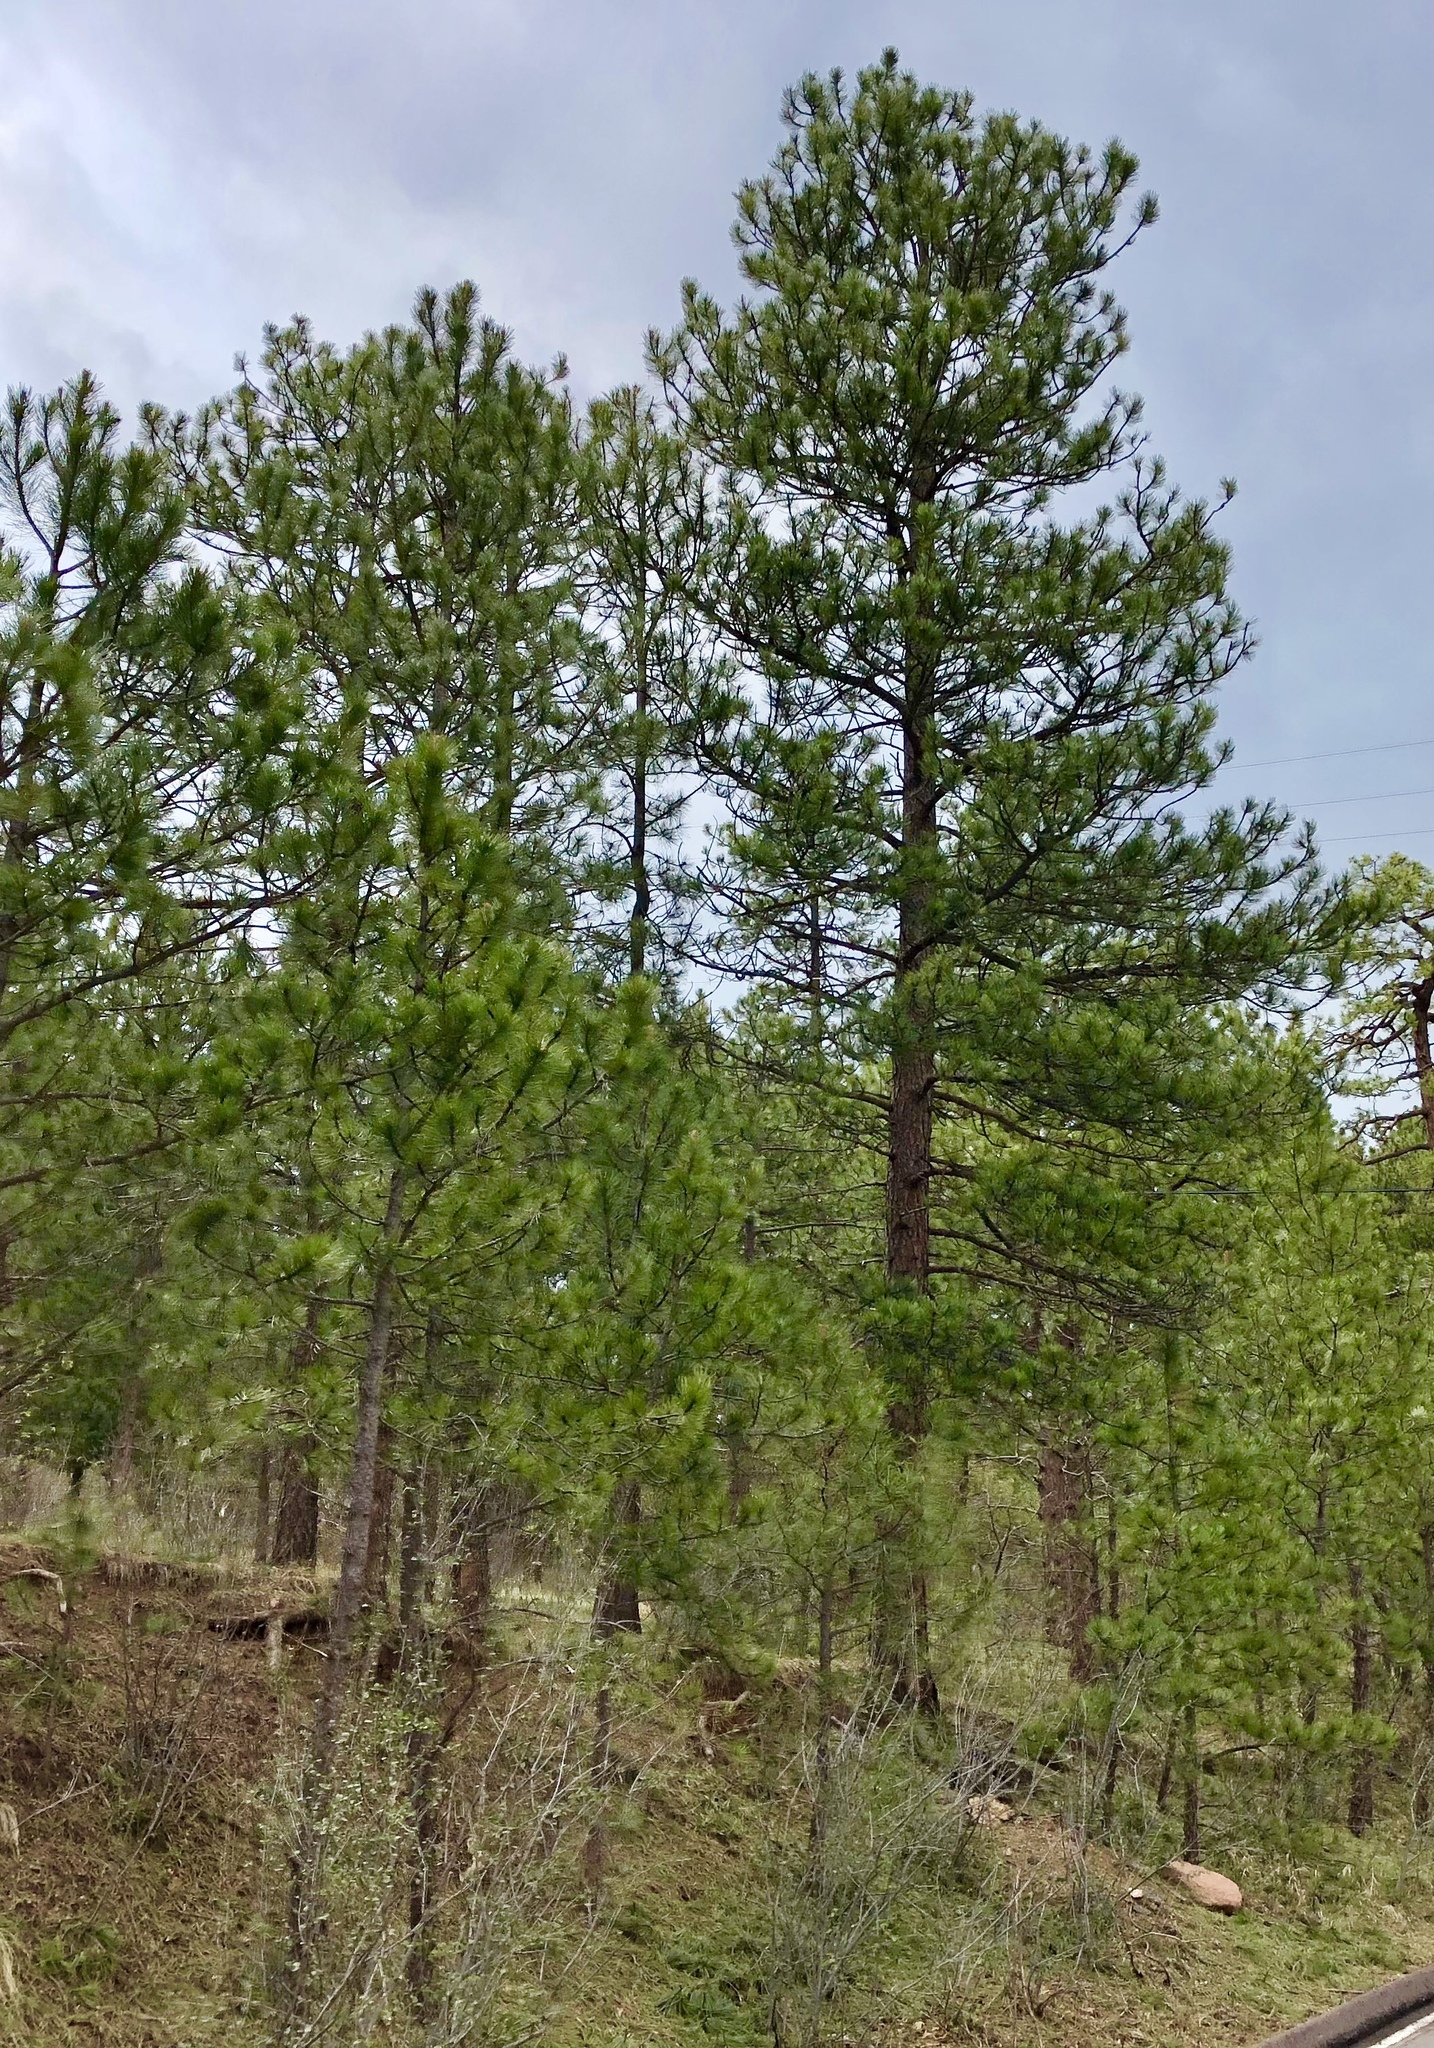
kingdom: Plantae
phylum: Tracheophyta
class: Pinopsida
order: Pinales
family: Pinaceae
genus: Pinus
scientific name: Pinus ponderosa
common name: Western yellow-pine
